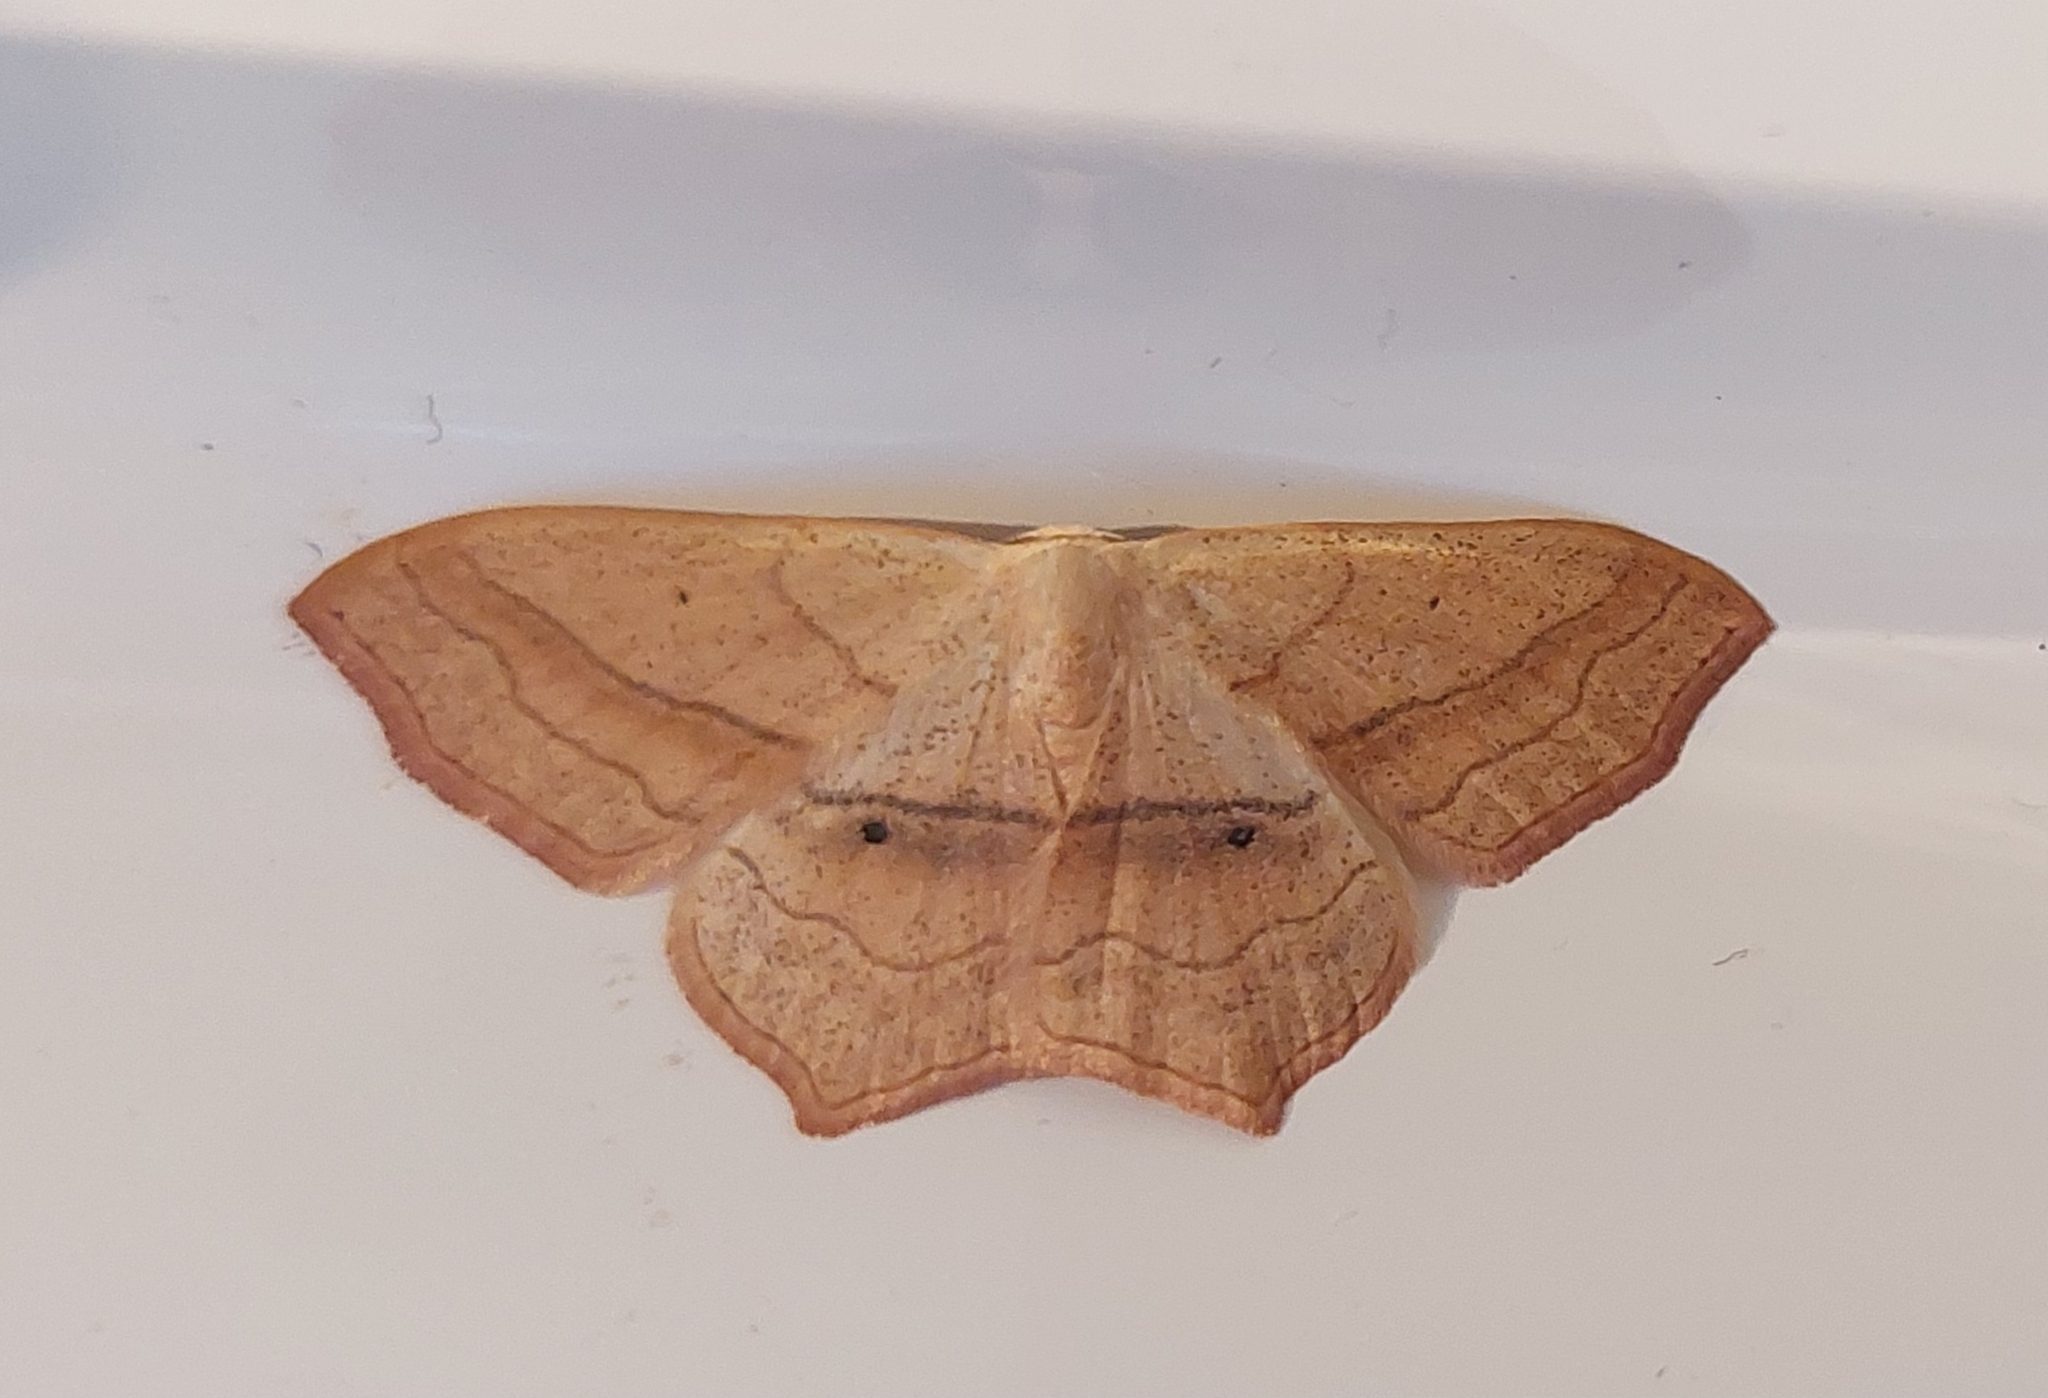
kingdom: Animalia
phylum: Arthropoda
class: Insecta
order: Lepidoptera
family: Geometridae
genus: Scopula
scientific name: Scopula imitaria
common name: Small blood-vein
